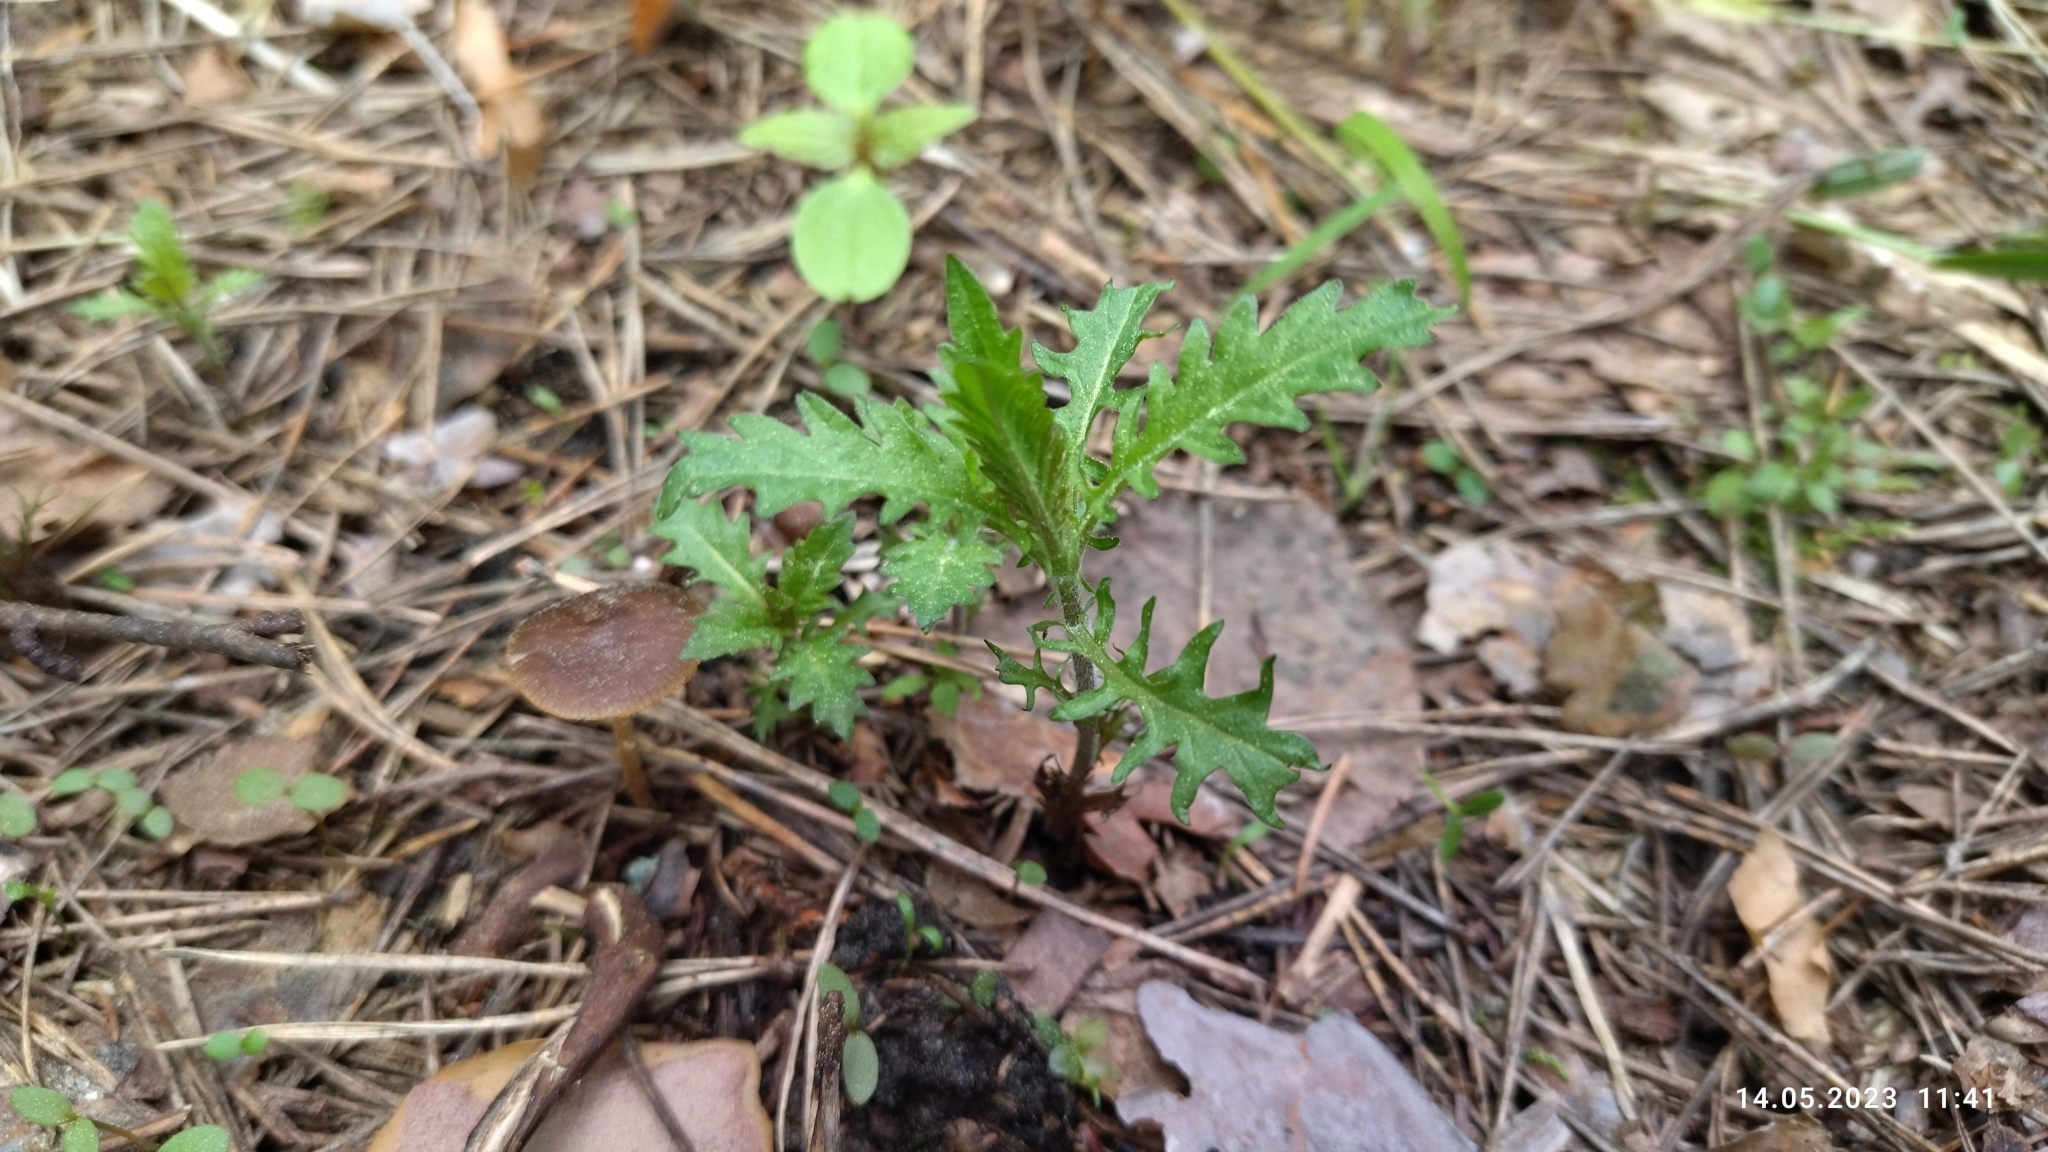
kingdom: Plantae
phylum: Tracheophyta
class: Magnoliopsida
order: Lamiales
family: Lamiaceae
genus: Lycopus
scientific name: Lycopus europaeus
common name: European bugleweed
